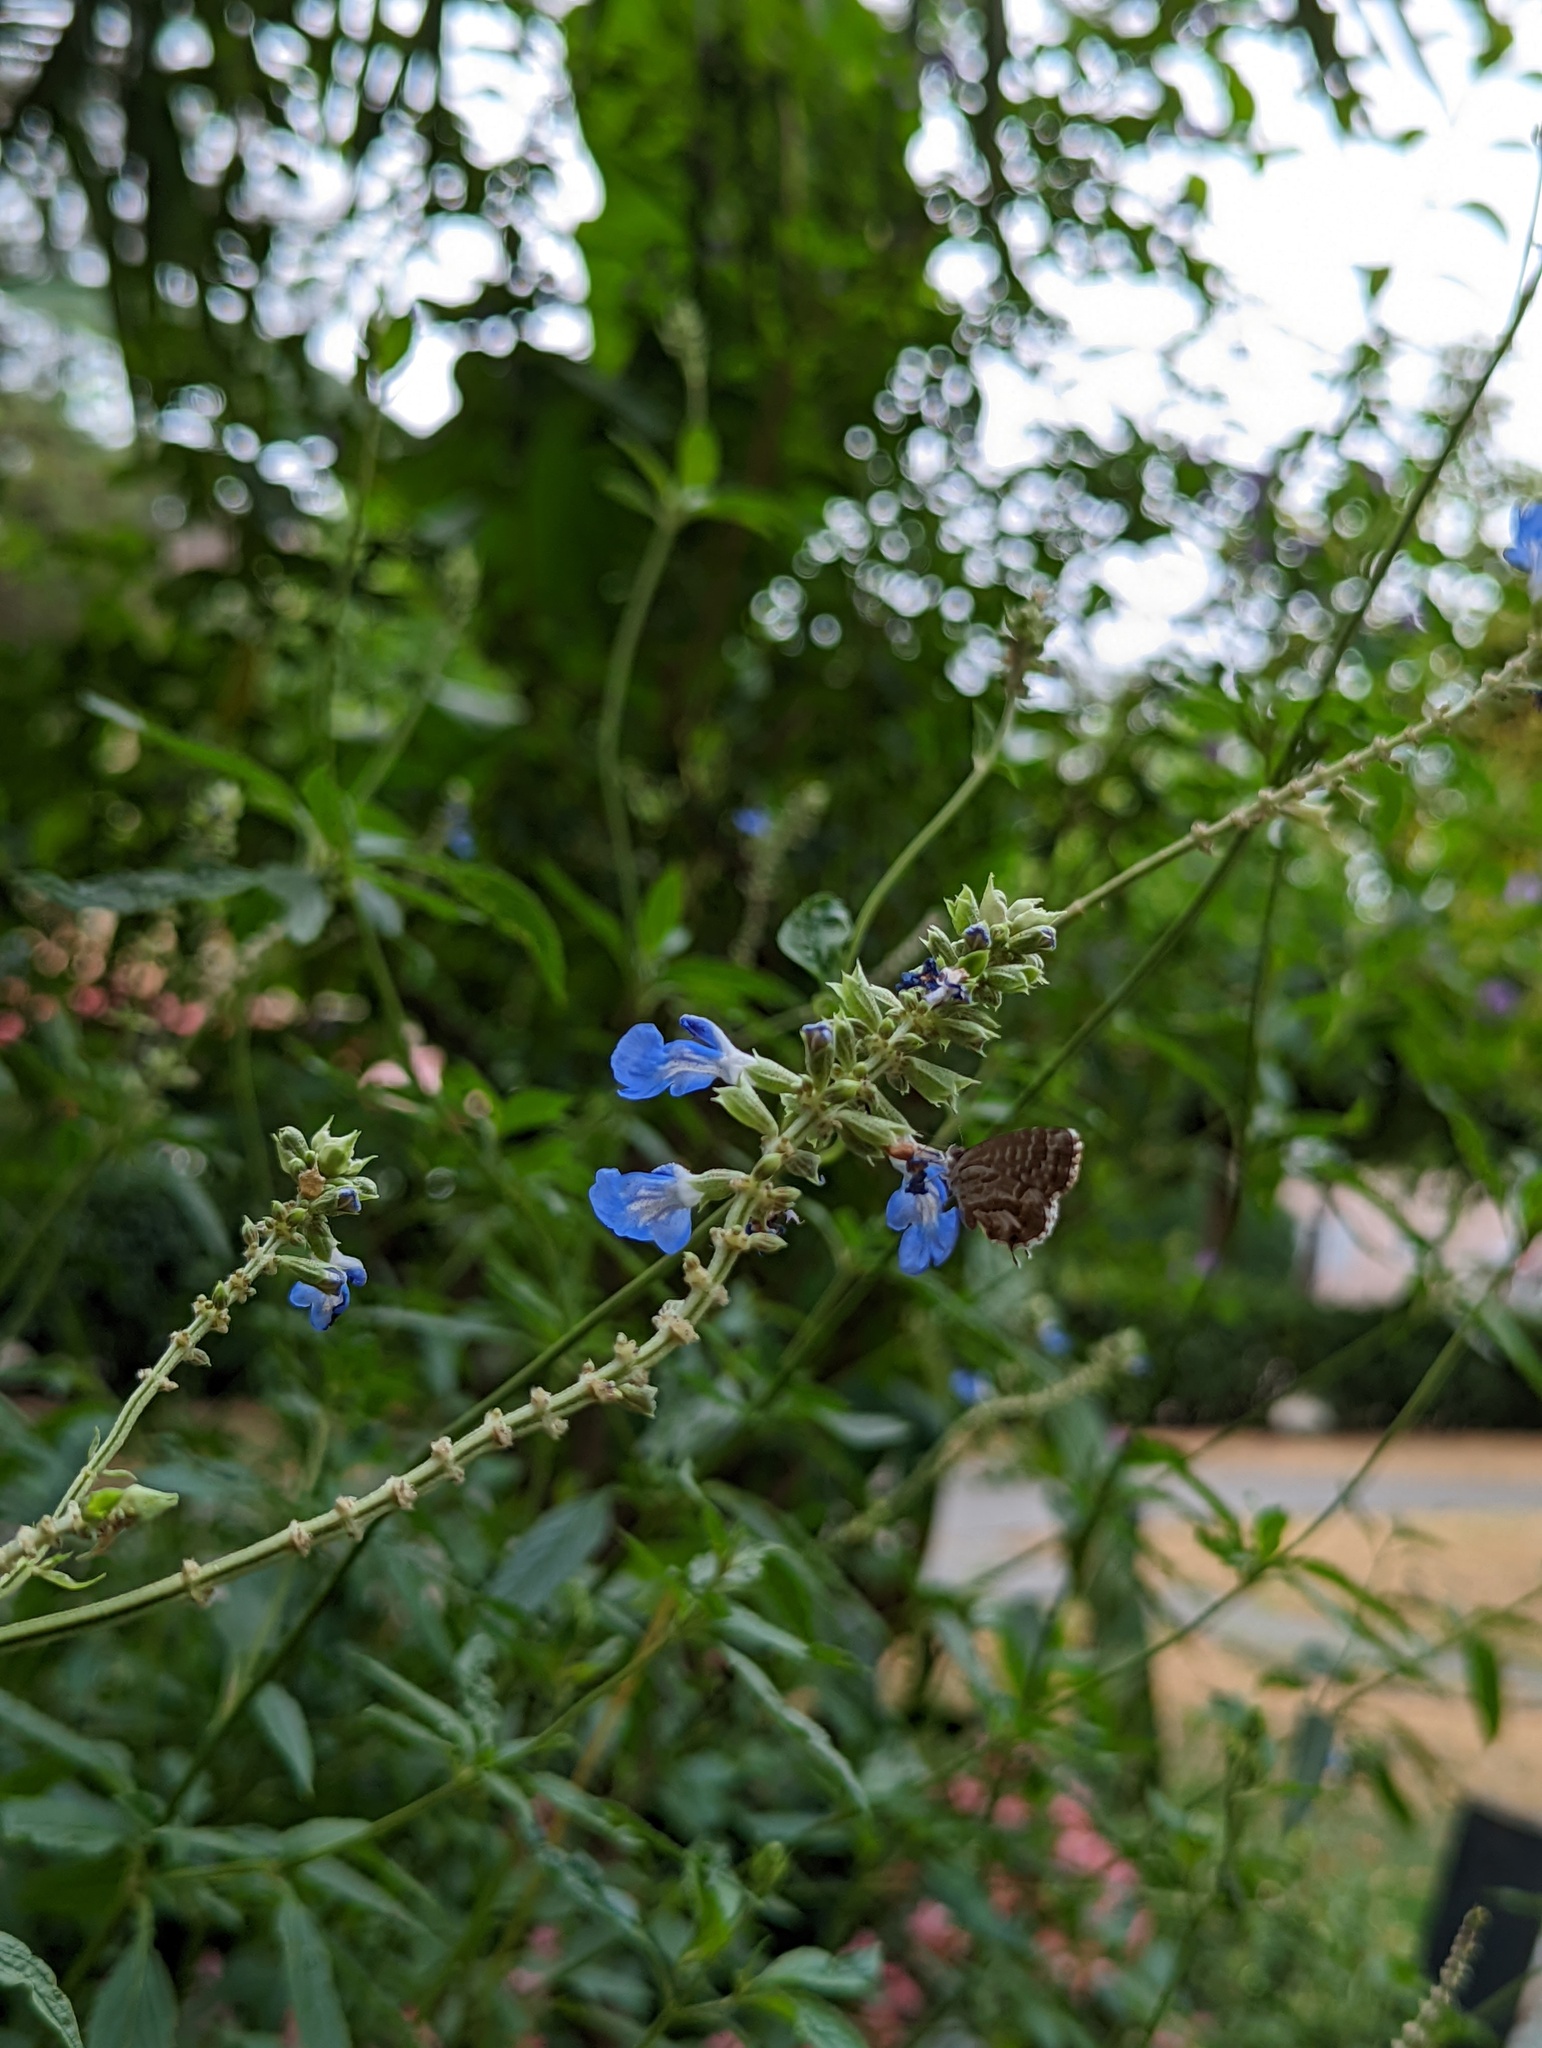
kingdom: Animalia
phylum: Arthropoda
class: Insecta
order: Lepidoptera
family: Lycaenidae
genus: Cacyreus
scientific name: Cacyreus marshalli
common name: Geranium bronze
